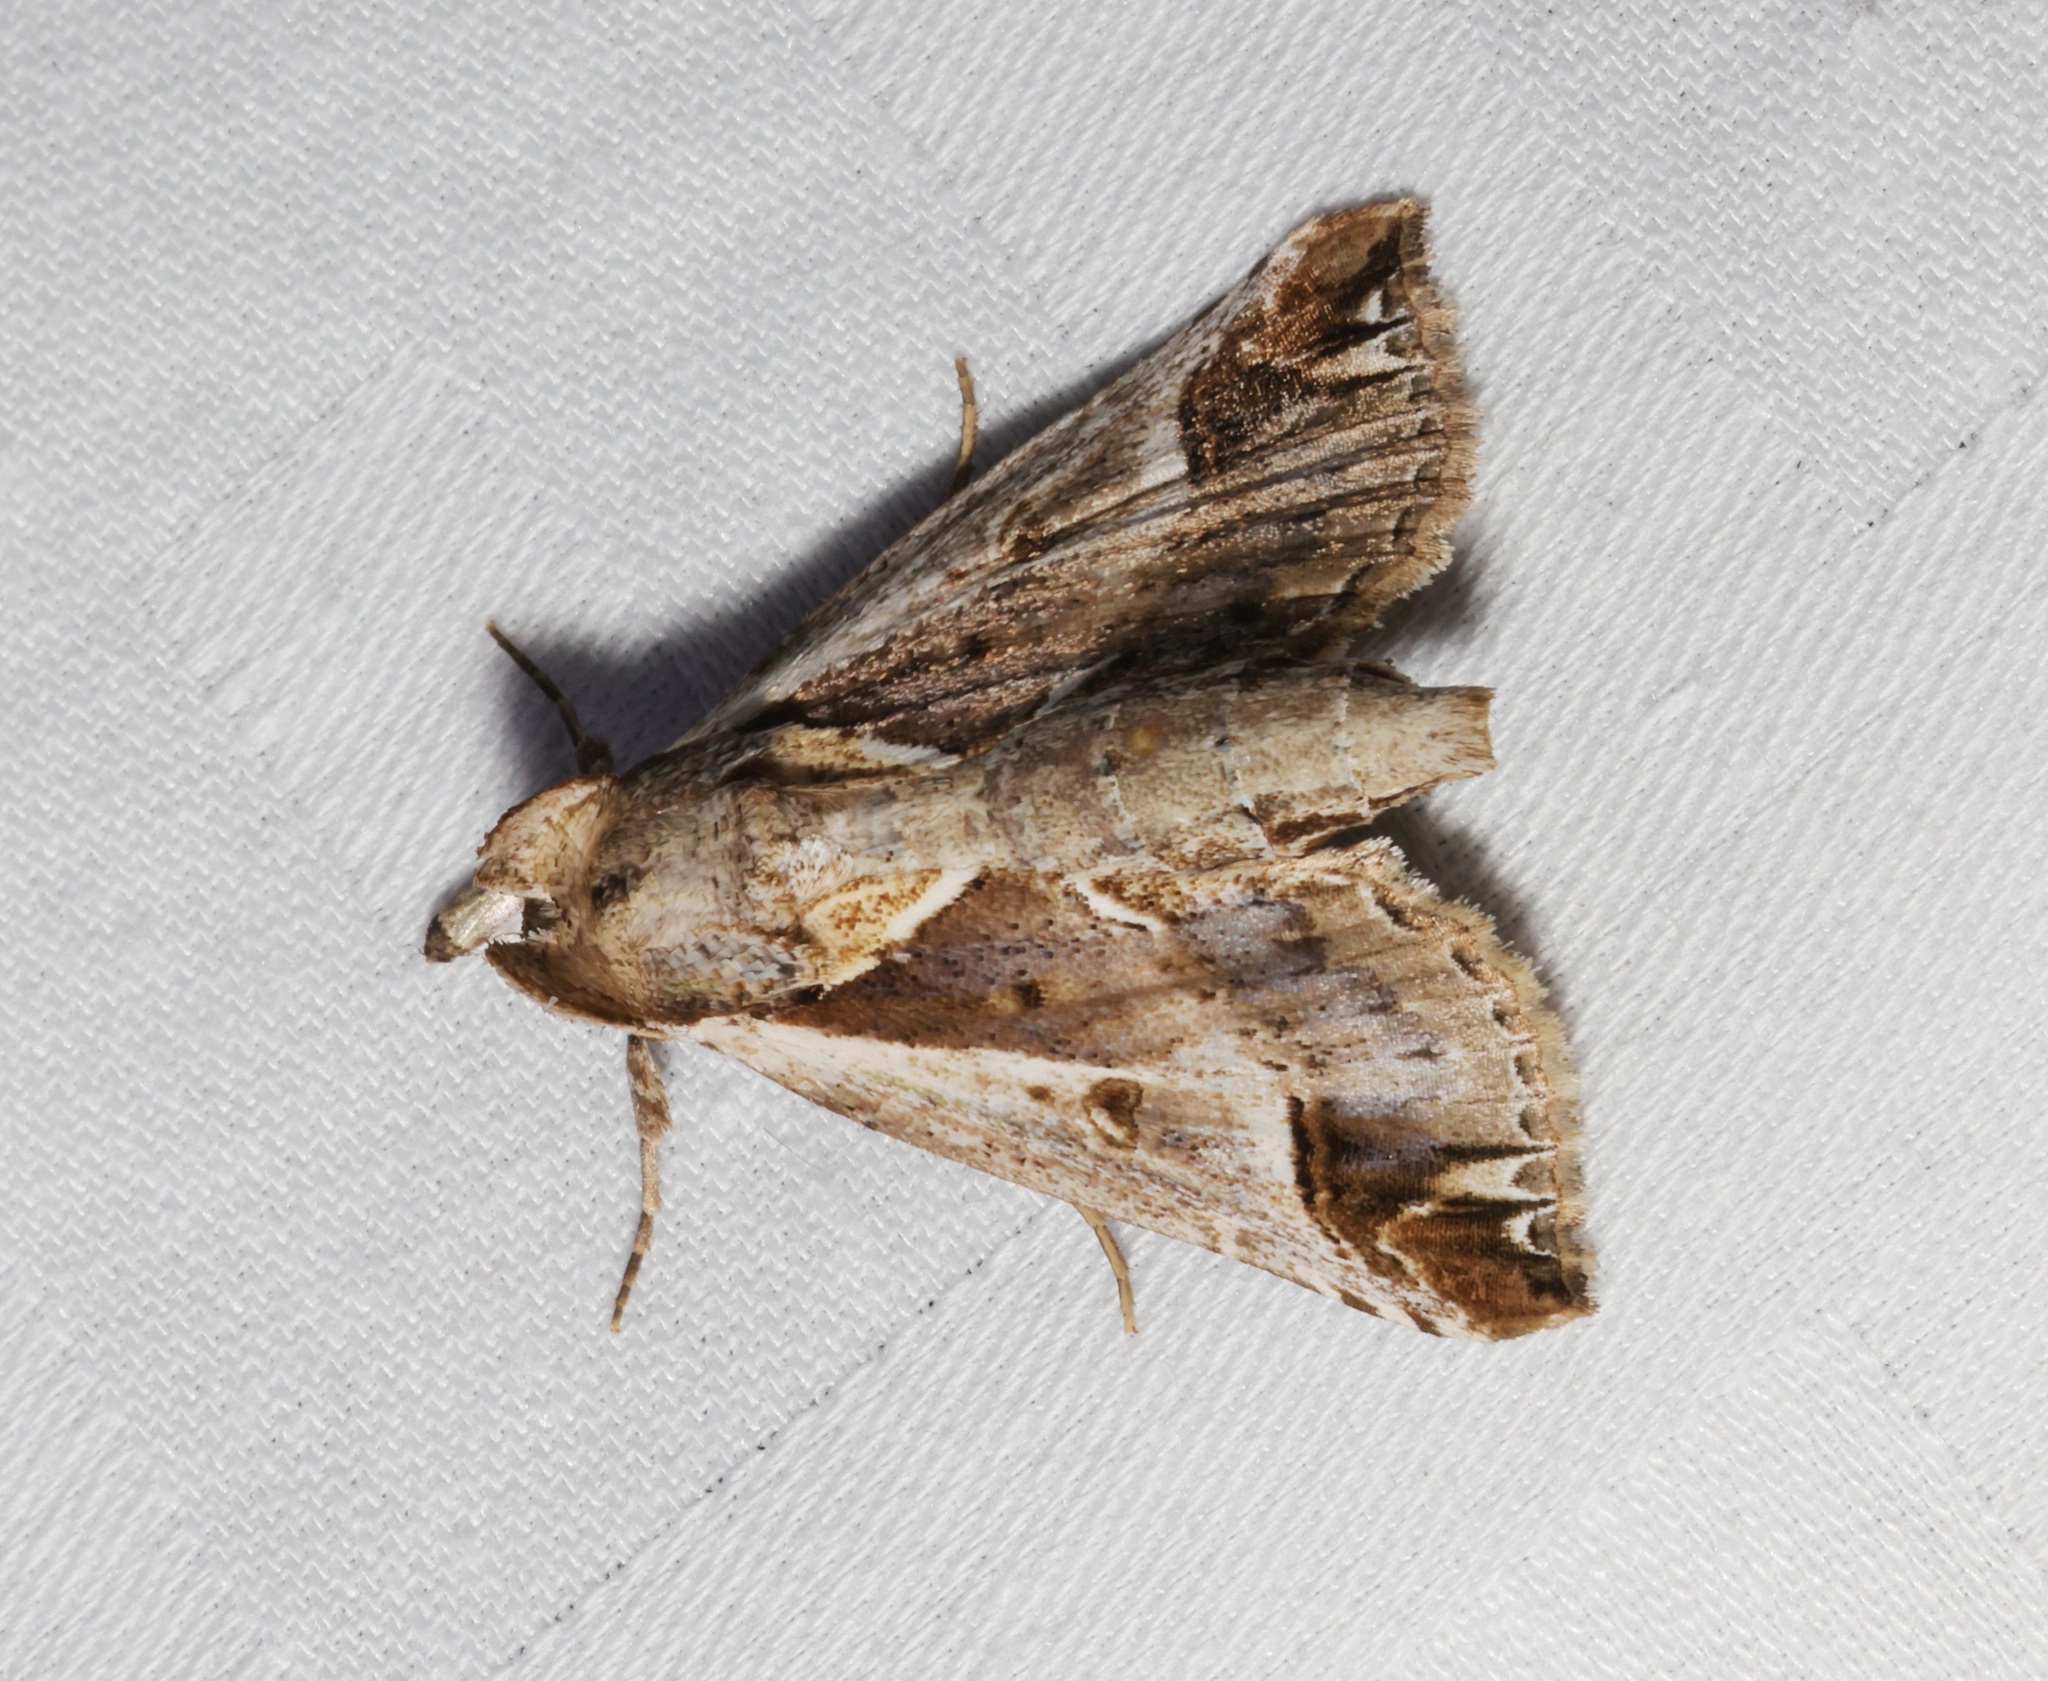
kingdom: Animalia
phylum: Arthropoda
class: Insecta
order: Lepidoptera
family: Nolidae
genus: Risoba
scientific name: Risoba diversipennis
